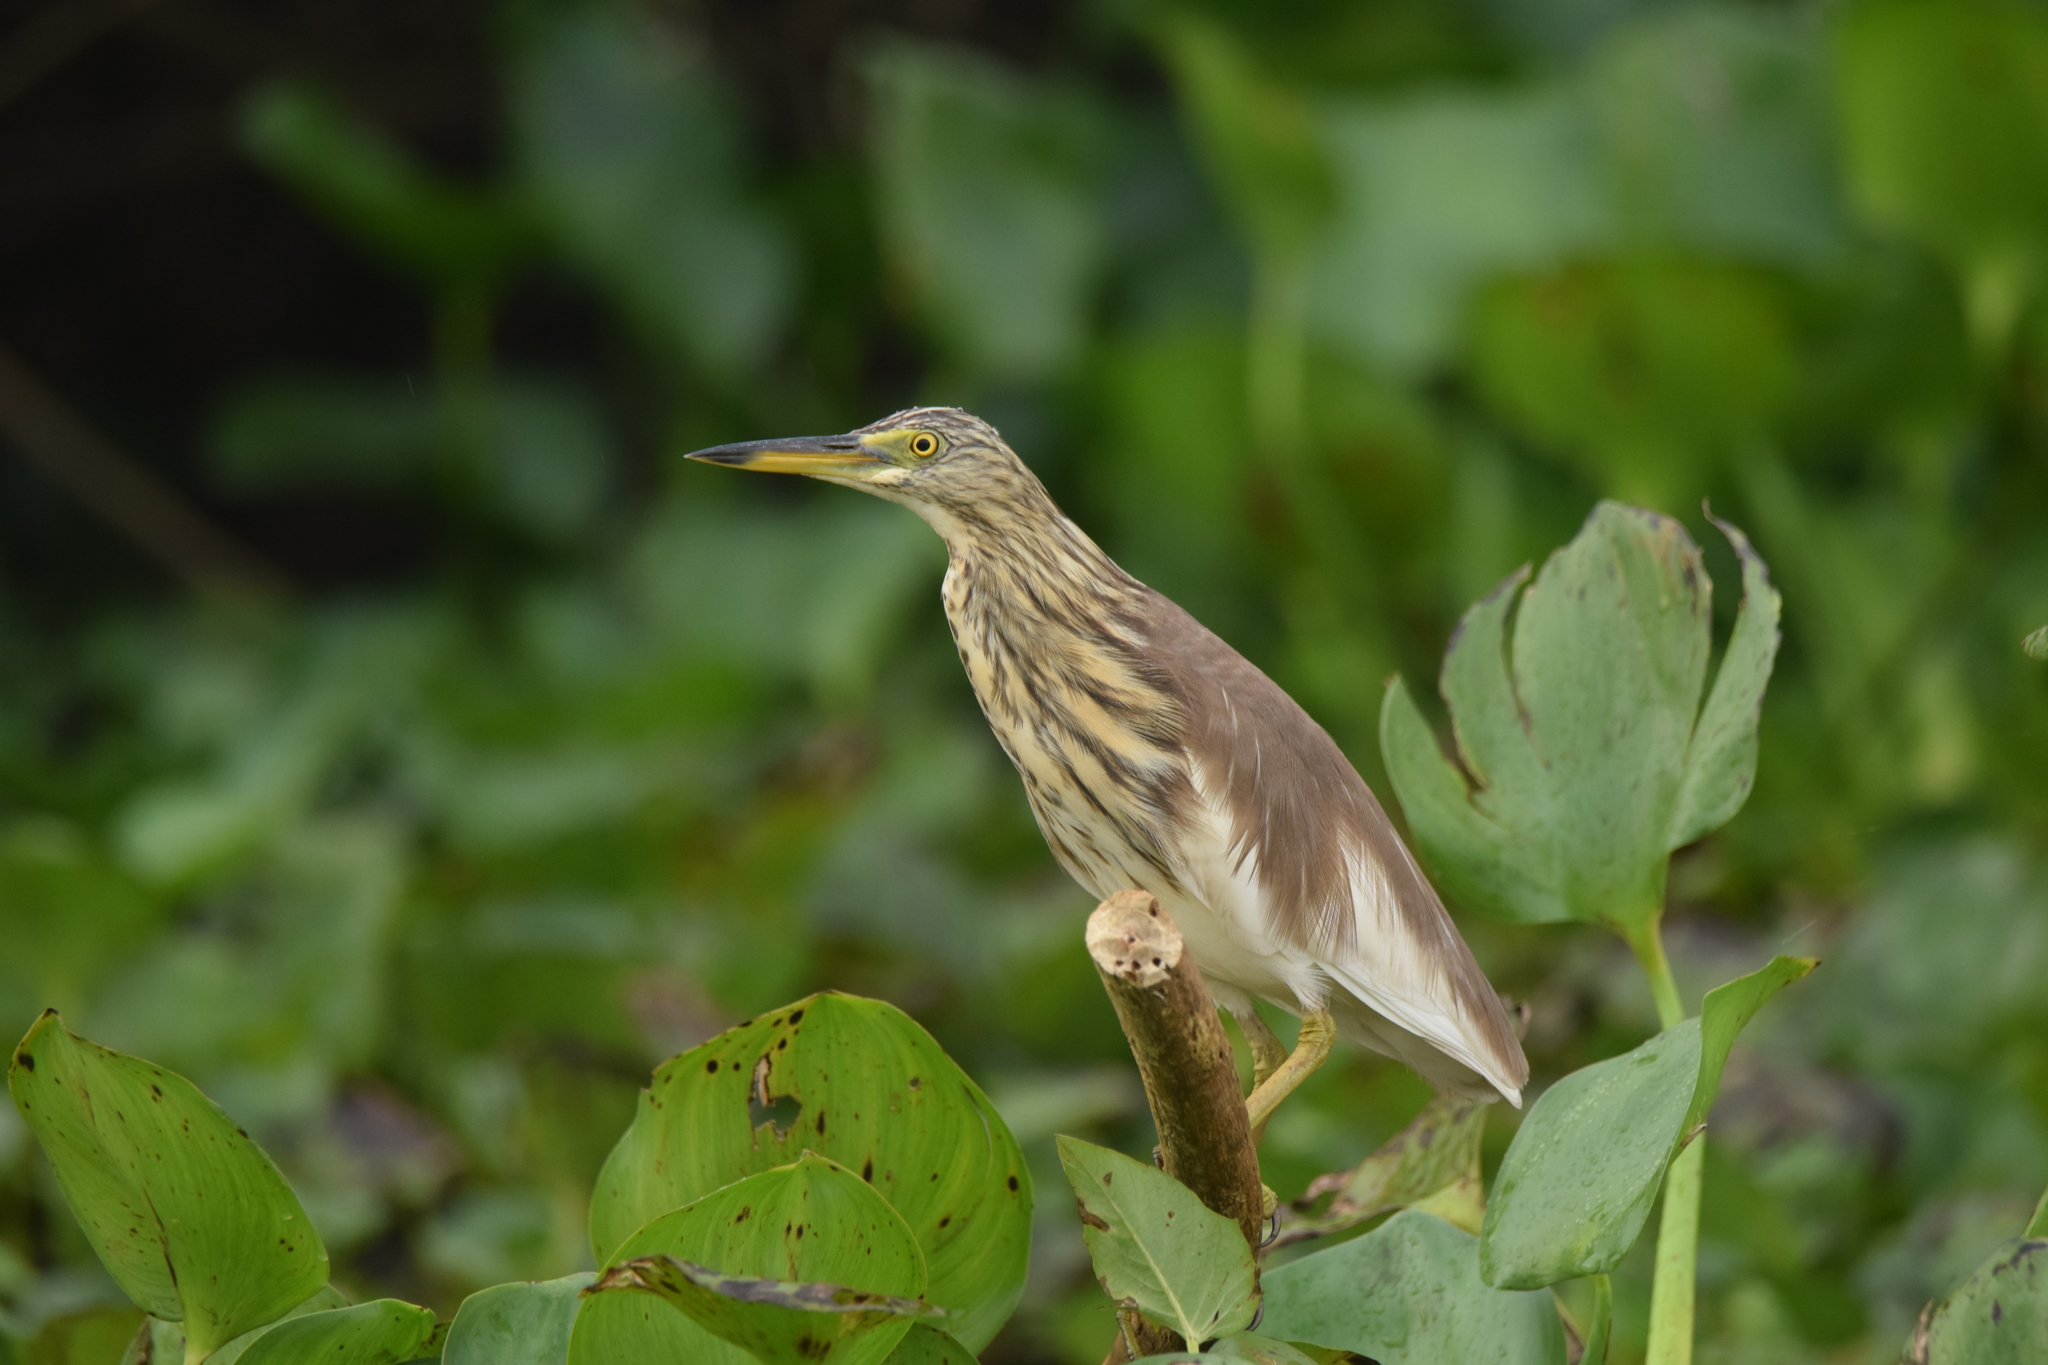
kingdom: Animalia
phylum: Chordata
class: Aves
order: Pelecaniformes
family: Ardeidae
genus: Ardeola
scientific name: Ardeola
